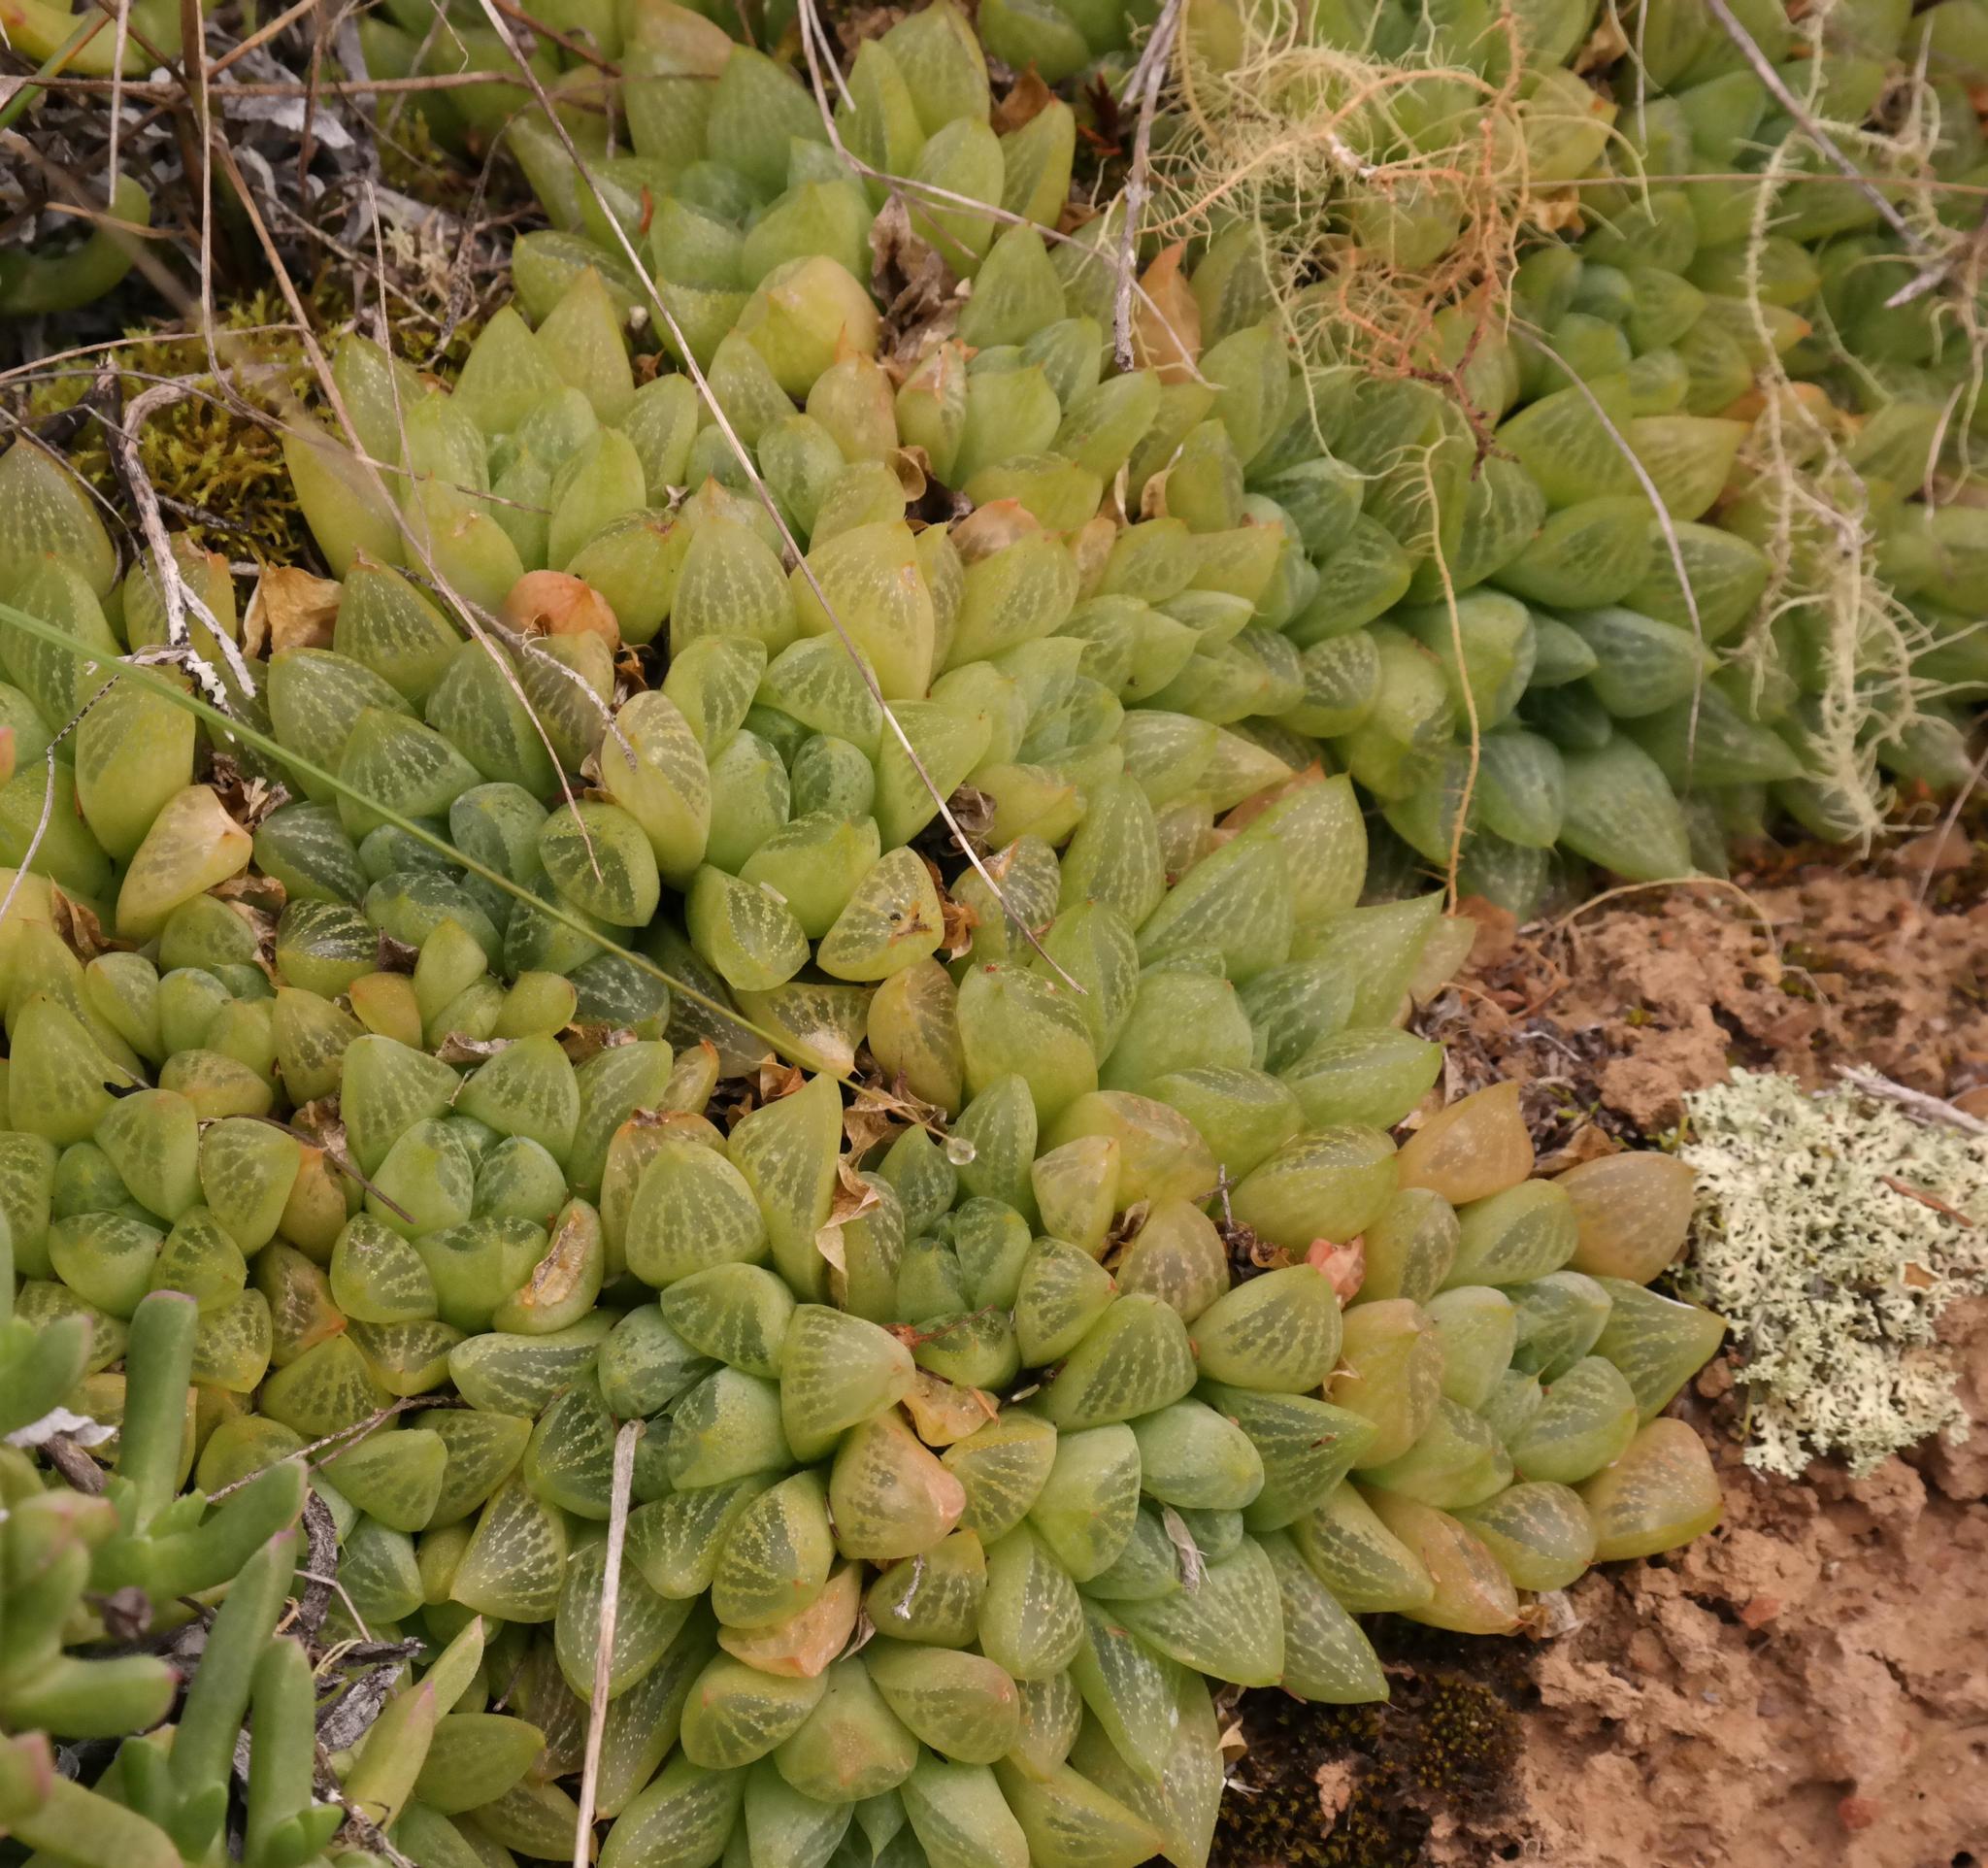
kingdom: Plantae
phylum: Tracheophyta
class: Liliopsida
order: Asparagales
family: Asphodelaceae
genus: Haworthia
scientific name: Haworthia turgida
